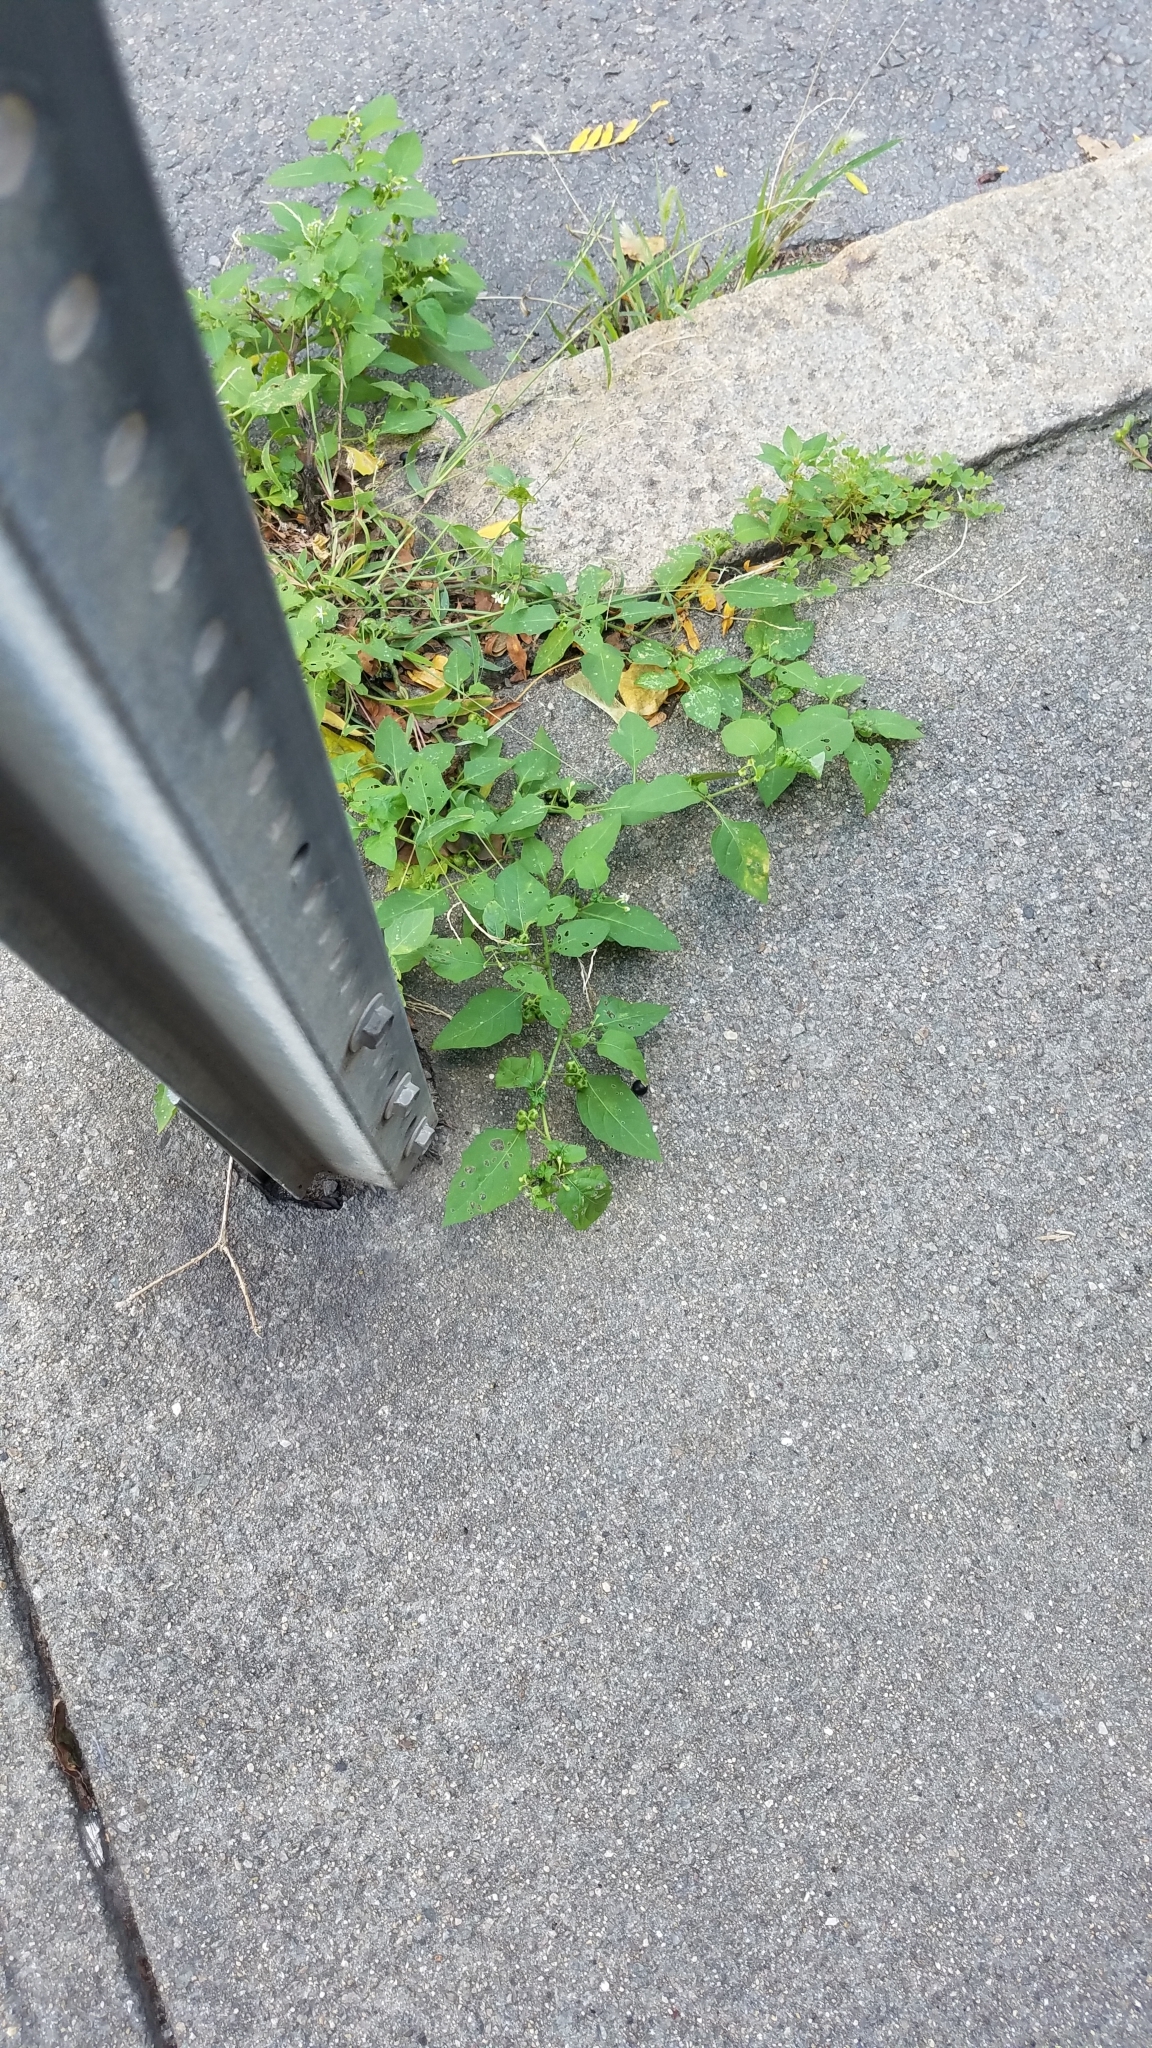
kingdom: Plantae
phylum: Tracheophyta
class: Magnoliopsida
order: Solanales
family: Solanaceae
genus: Solanum
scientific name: Solanum emulans
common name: Eastern black nightshade
